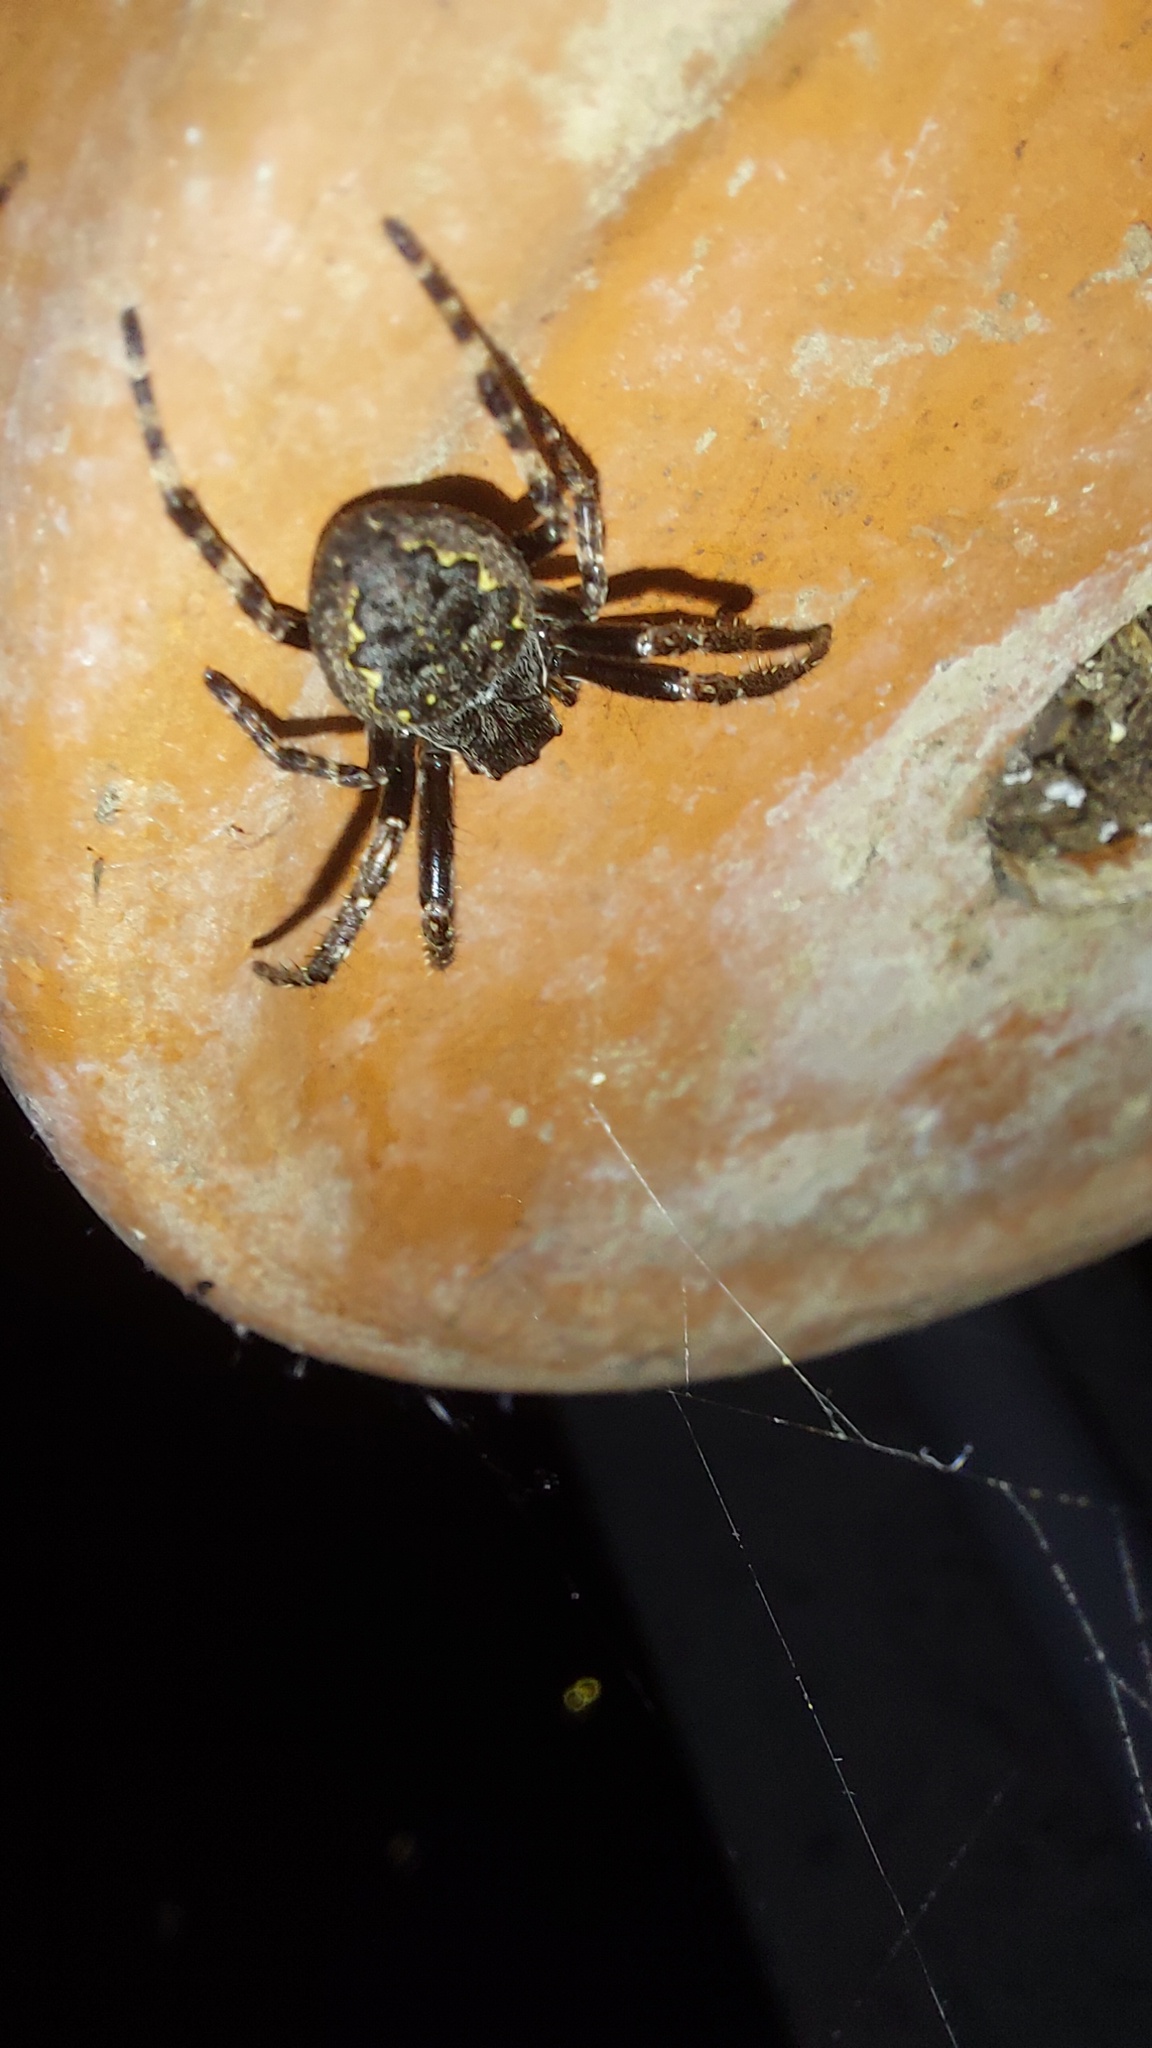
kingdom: Animalia
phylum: Arthropoda
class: Arachnida
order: Araneae
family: Araneidae
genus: Nuctenea
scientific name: Nuctenea umbratica
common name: Toad spider
